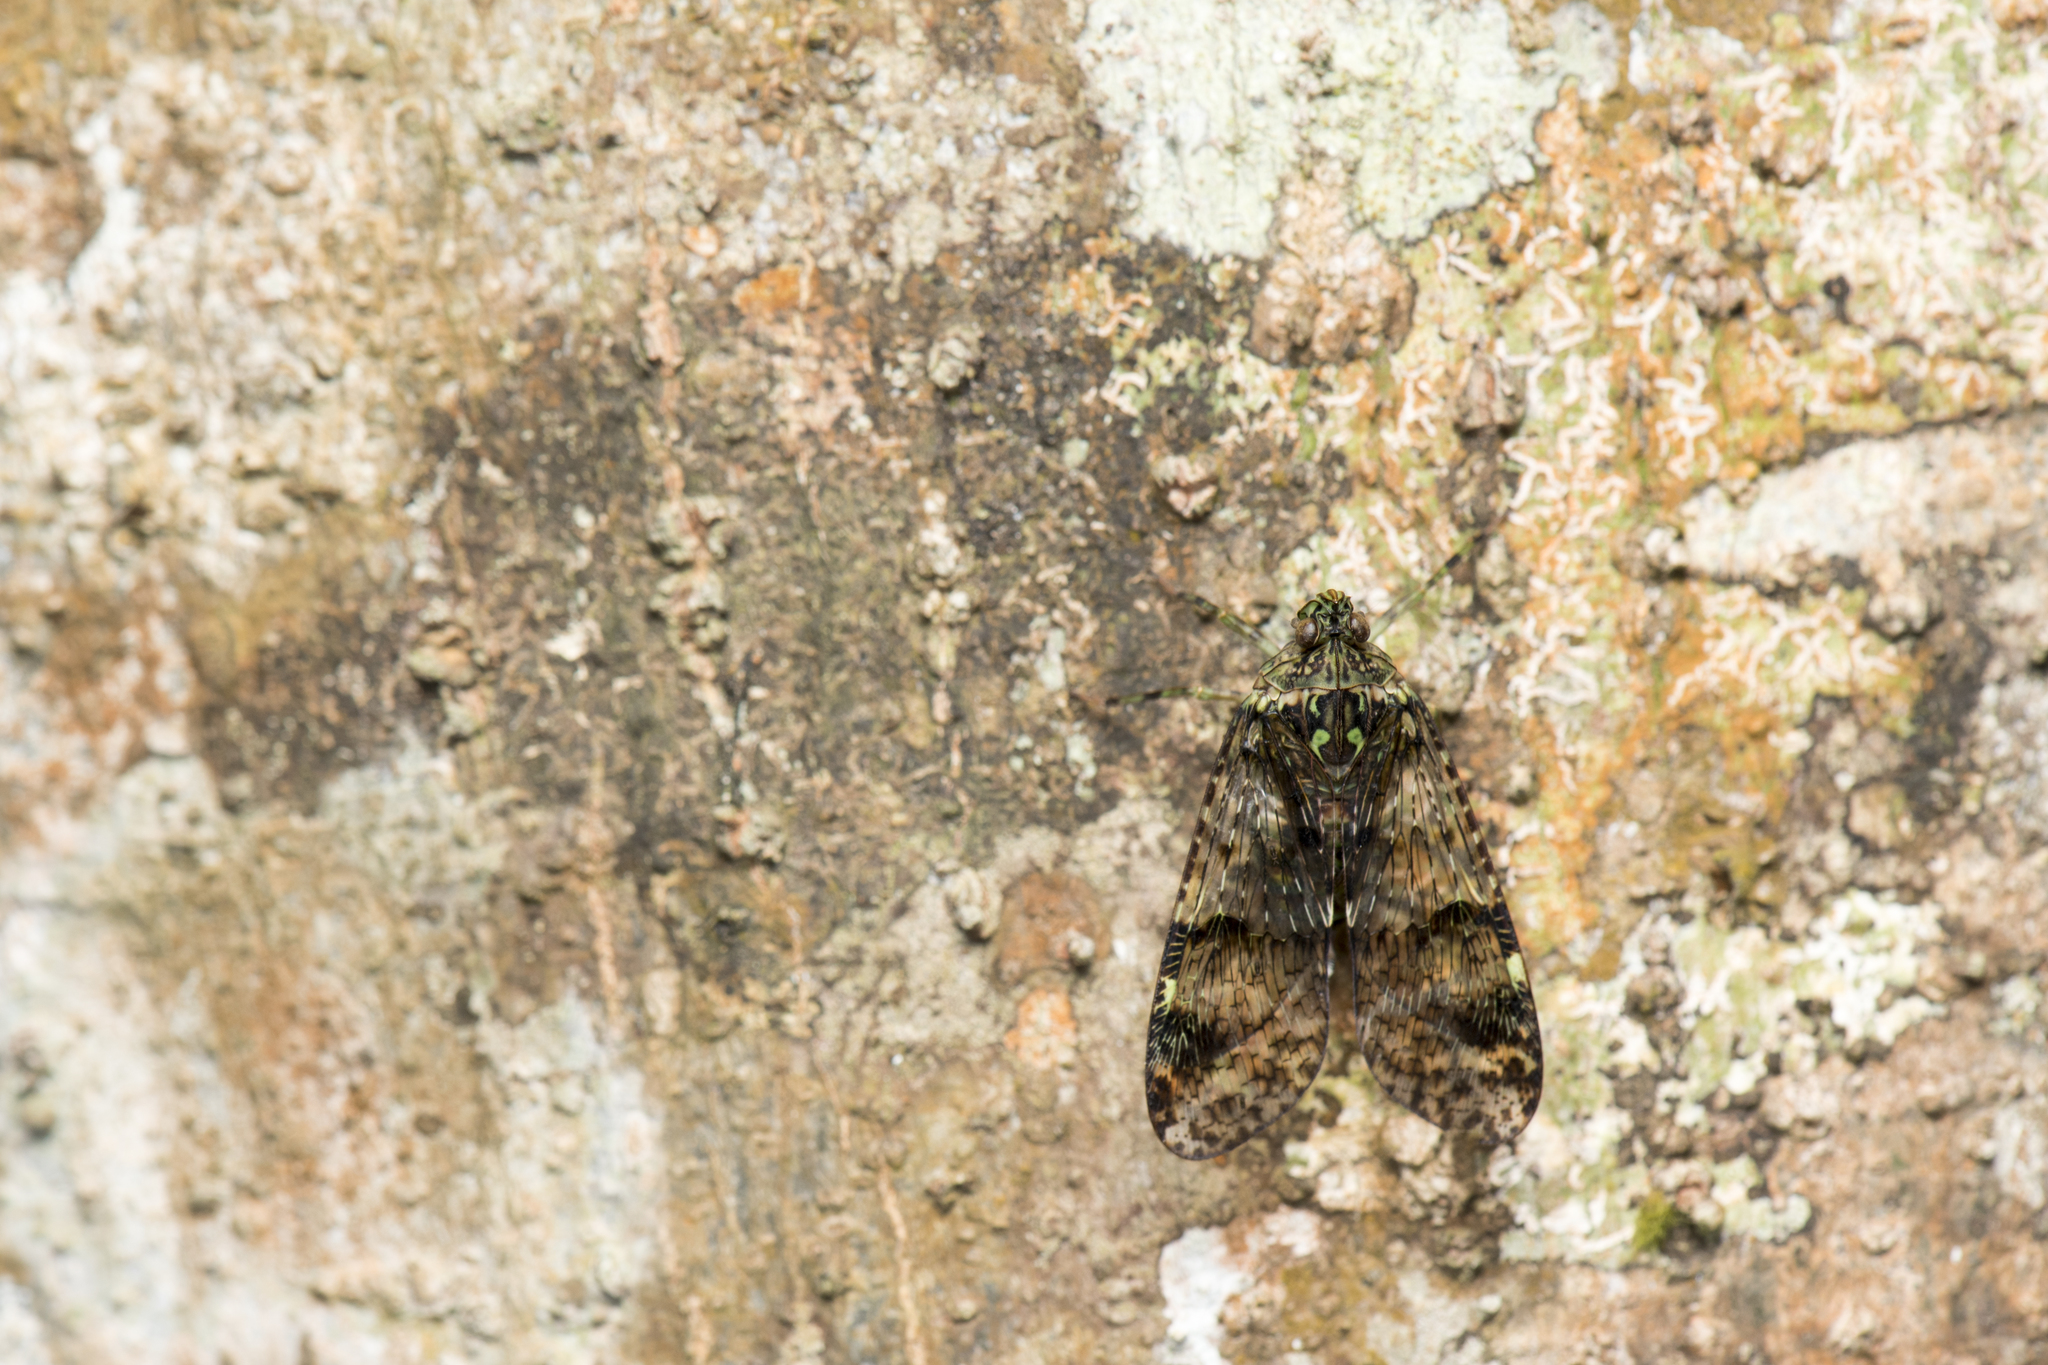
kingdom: Animalia
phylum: Arthropoda
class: Insecta
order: Hemiptera
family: Fulgoridae
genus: Dichoptera
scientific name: Dichoptera similis
